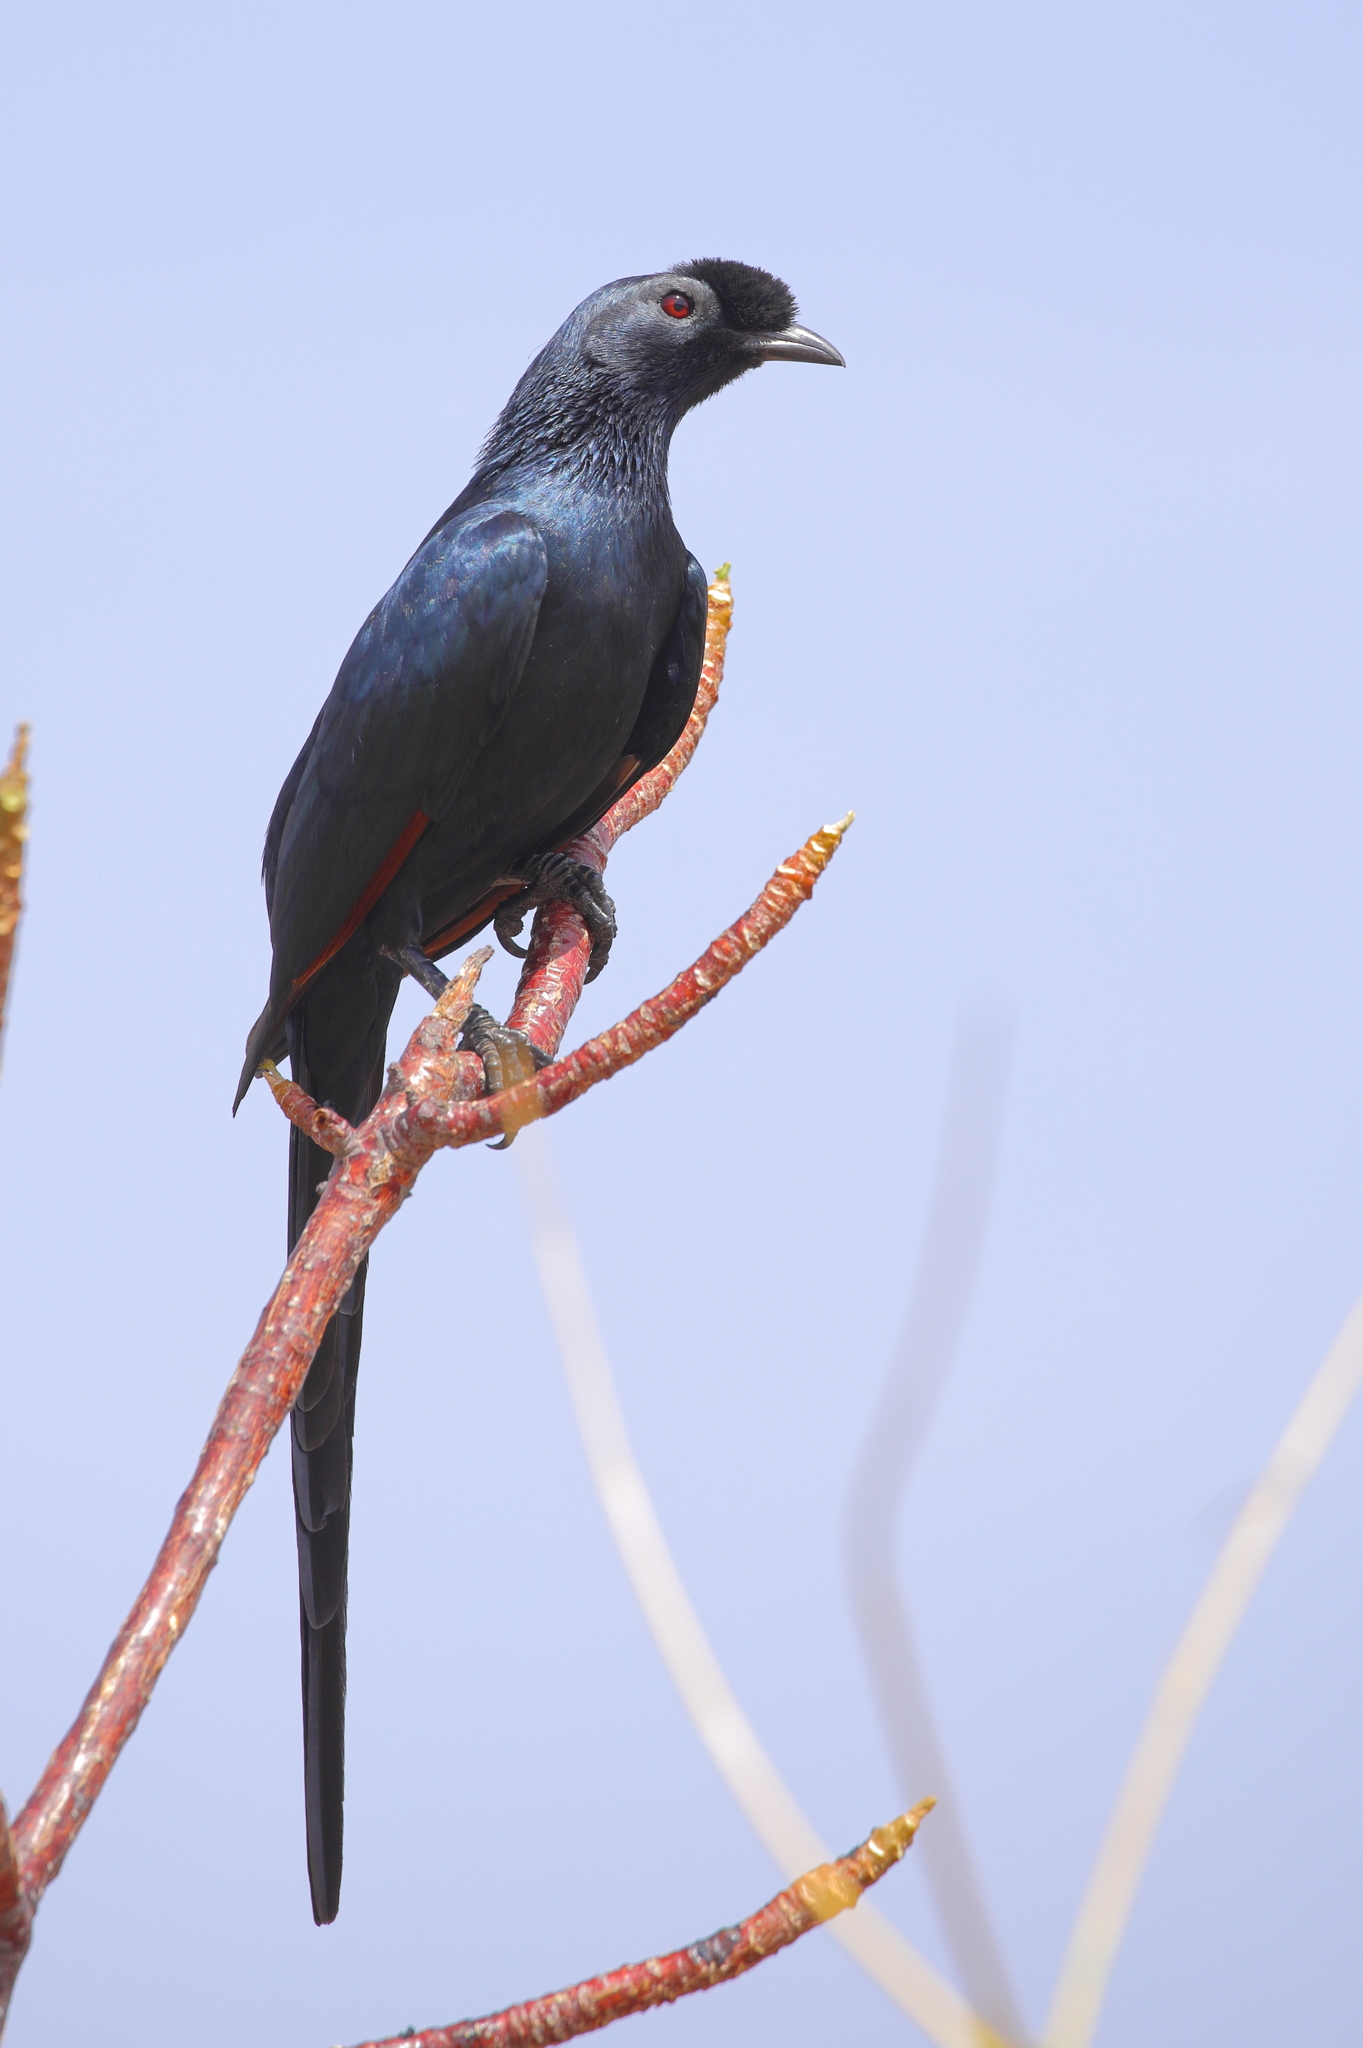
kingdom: Animalia
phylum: Chordata
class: Aves
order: Passeriformes
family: Sturnidae
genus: Onychognathus
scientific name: Onychognathus salvadorii
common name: Bristle-crowned starling
